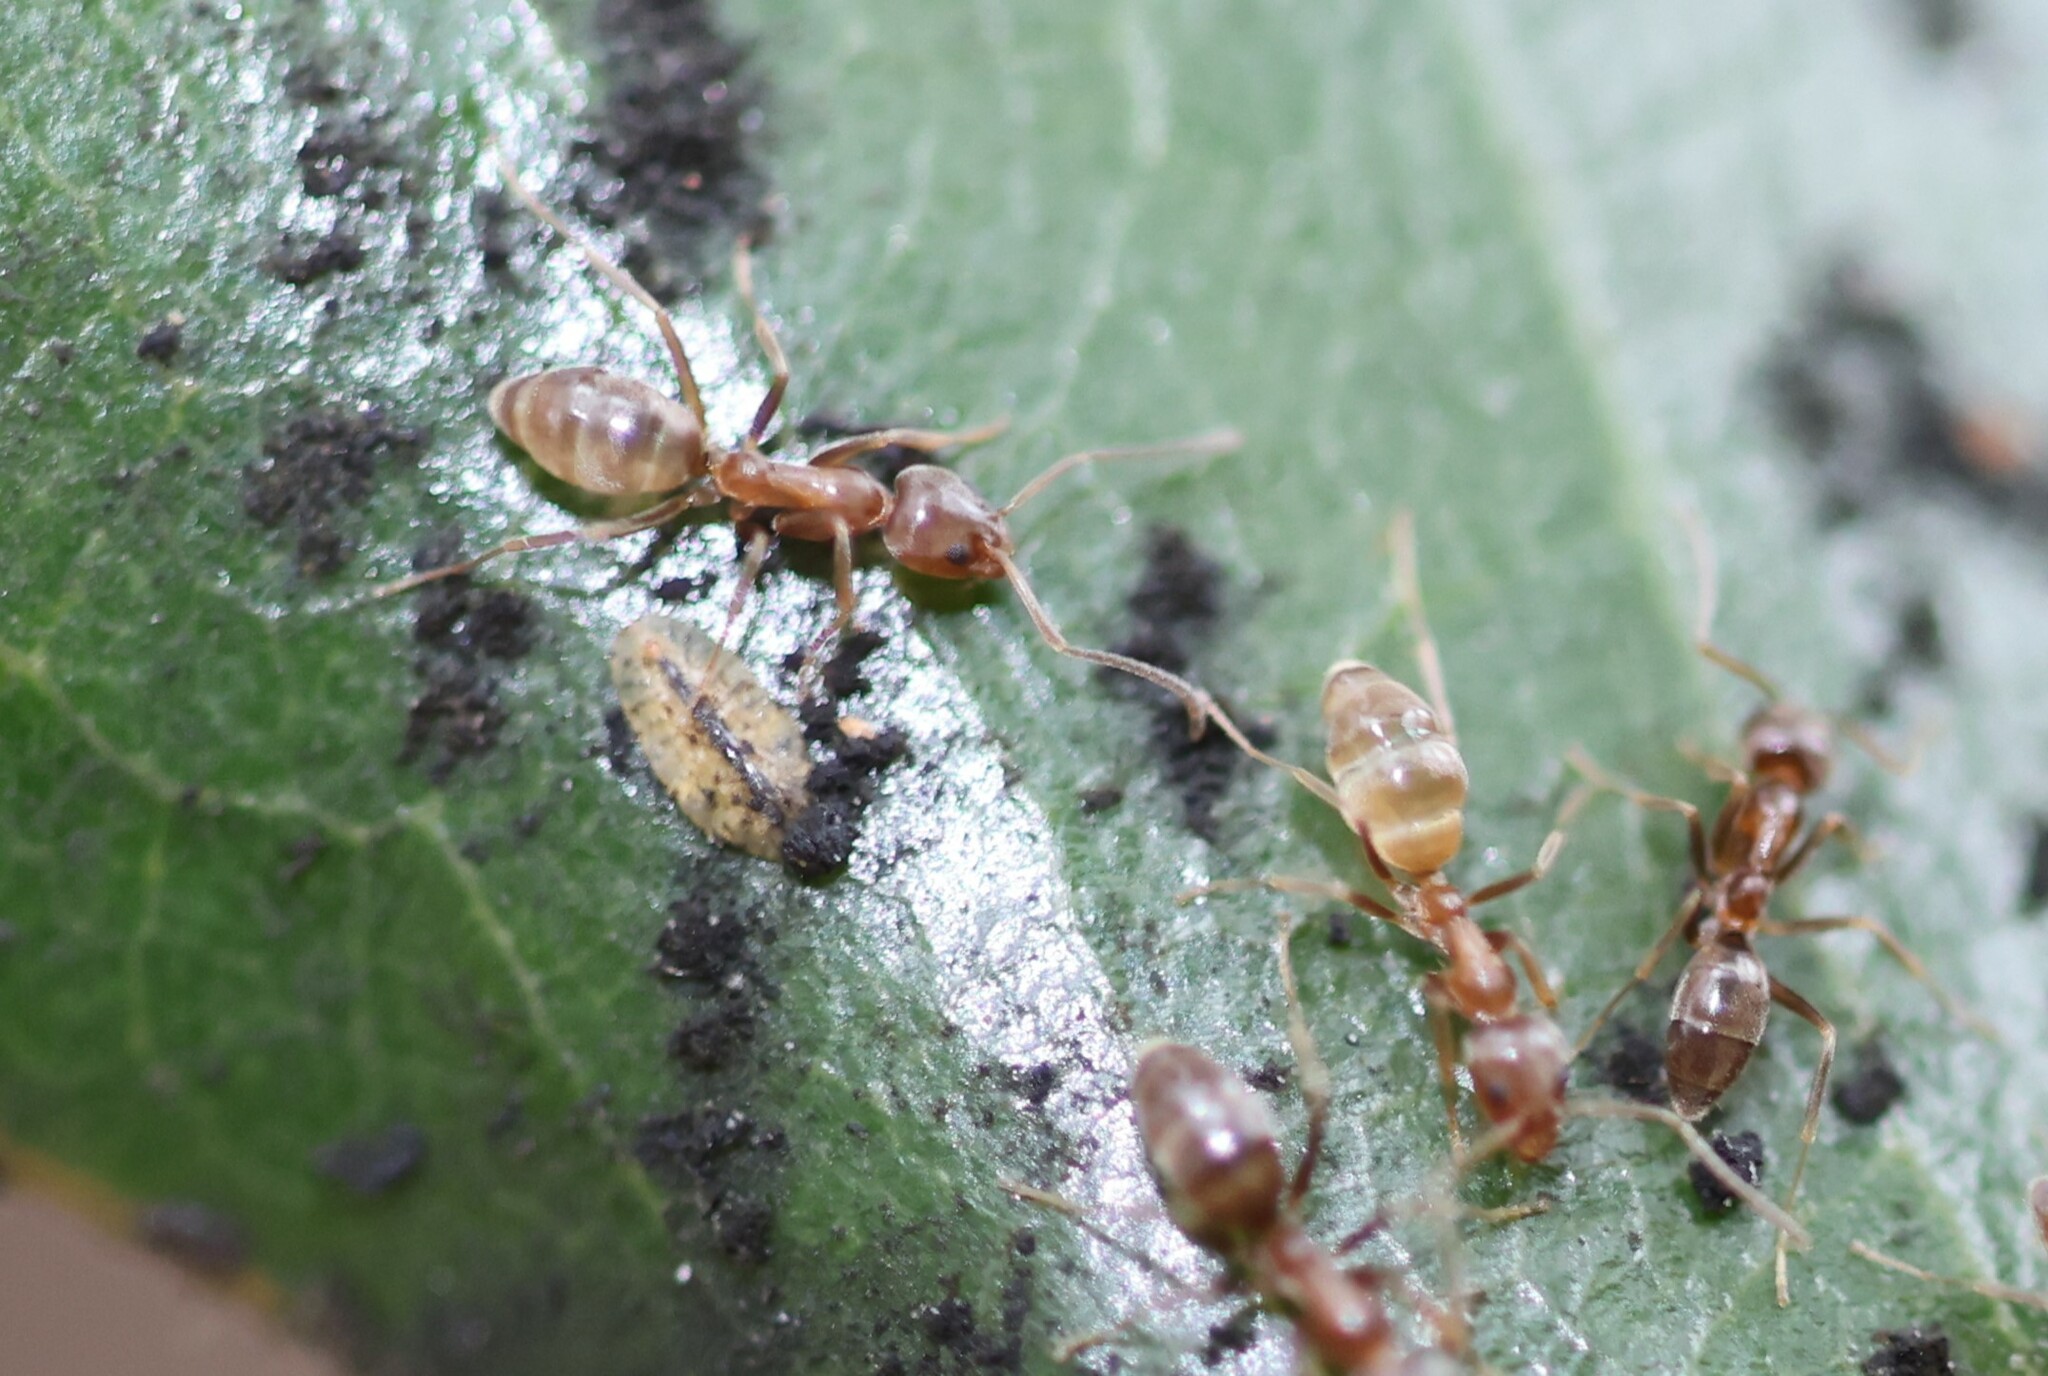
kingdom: Animalia
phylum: Arthropoda
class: Insecta
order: Hymenoptera
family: Formicidae
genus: Linepithema
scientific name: Linepithema humile
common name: Argentine ant
